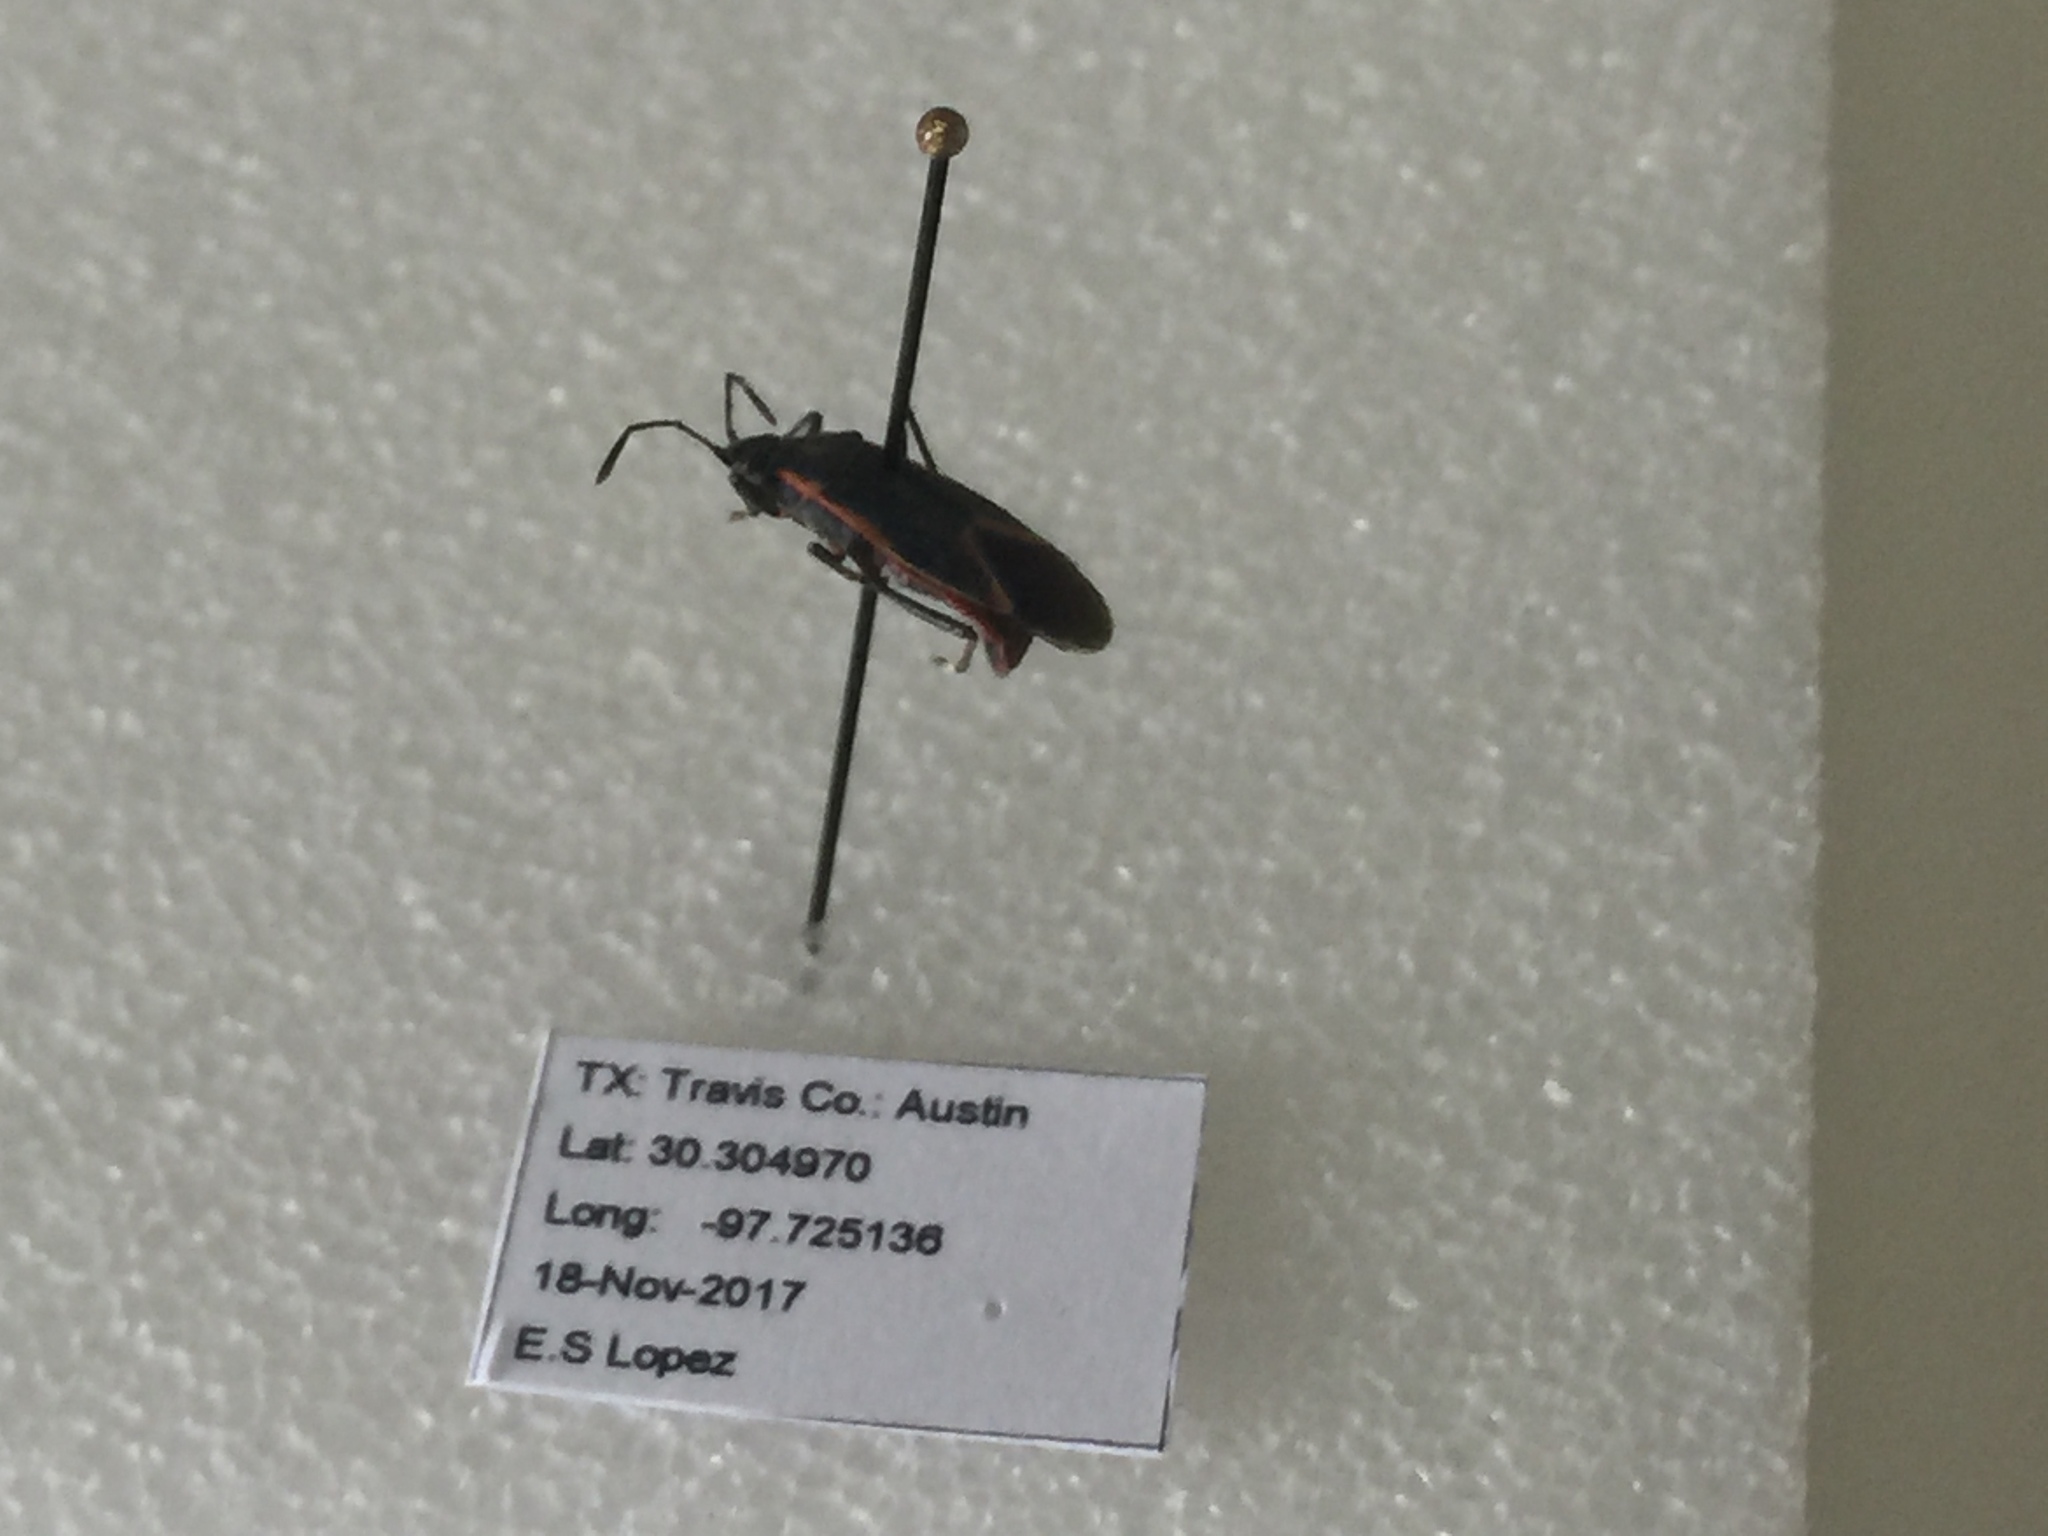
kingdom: Animalia
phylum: Arthropoda
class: Insecta
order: Hemiptera
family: Rhopalidae
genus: Boisea
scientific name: Boisea trivittata
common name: Boxelder bug
